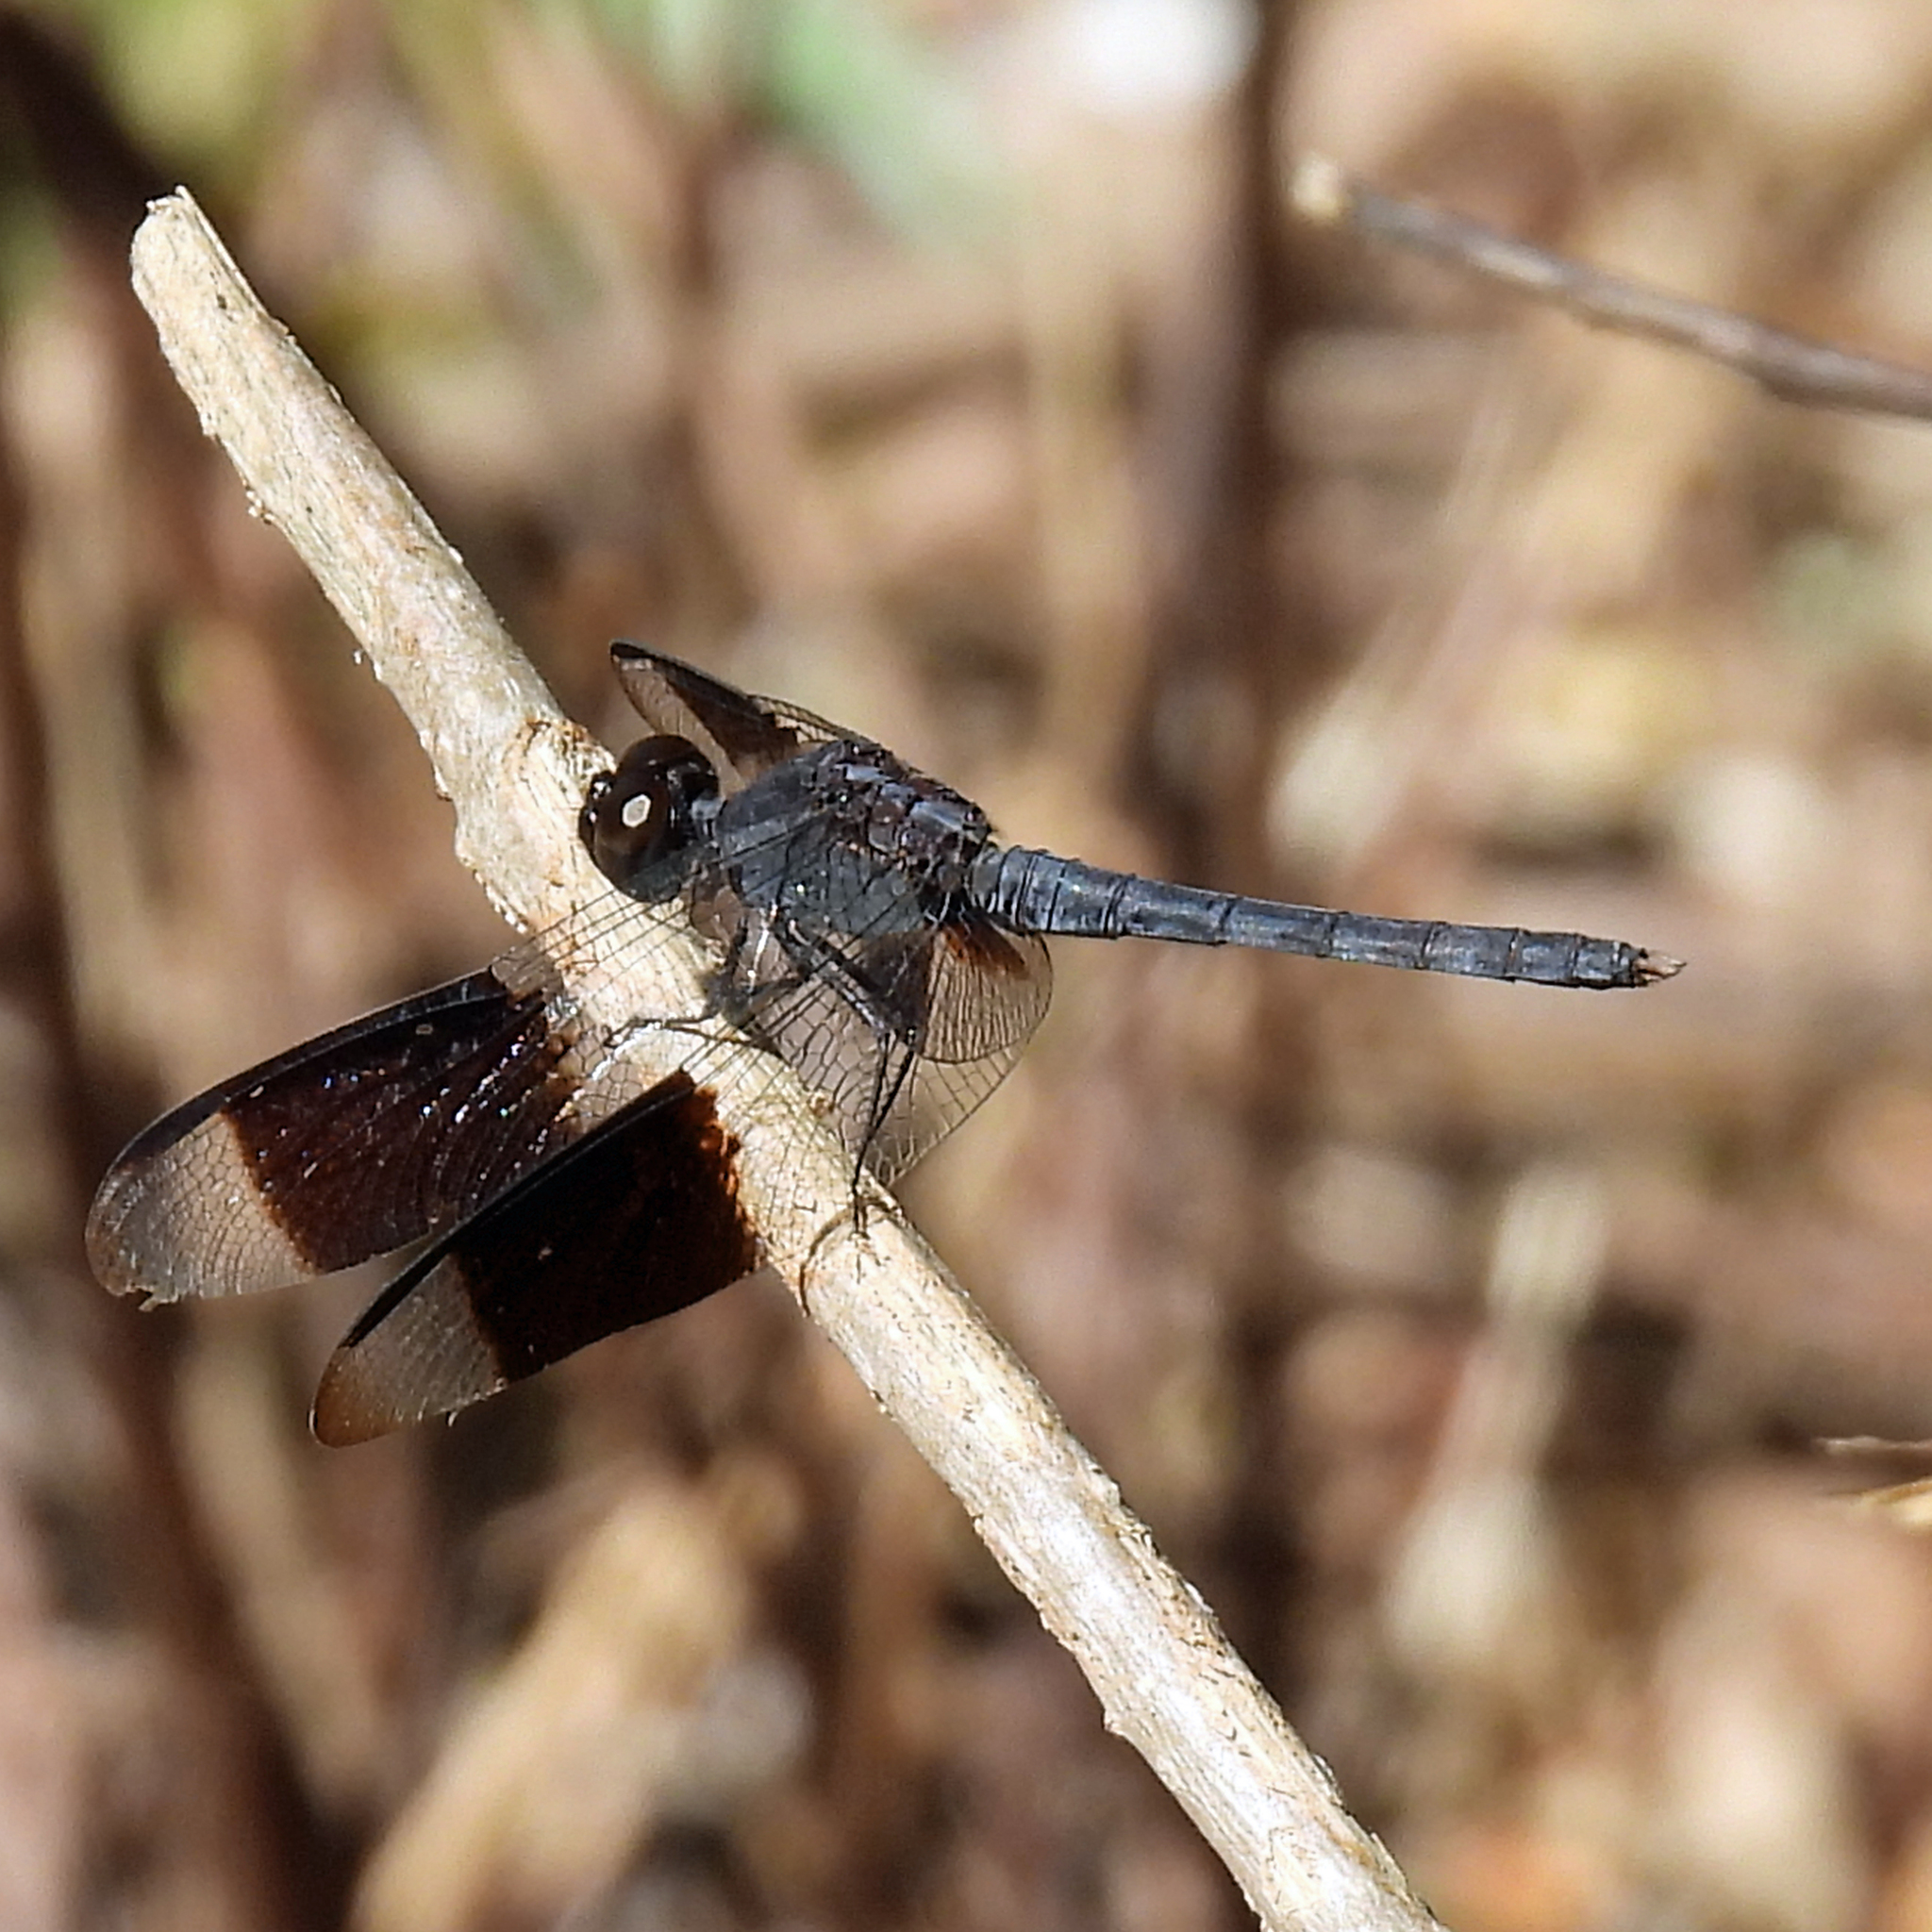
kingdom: Animalia
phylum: Arthropoda
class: Insecta
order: Odonata
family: Libellulidae
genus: Erythrodiplax
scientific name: Erythrodiplax umbrata
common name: Band-winged dragonlet
